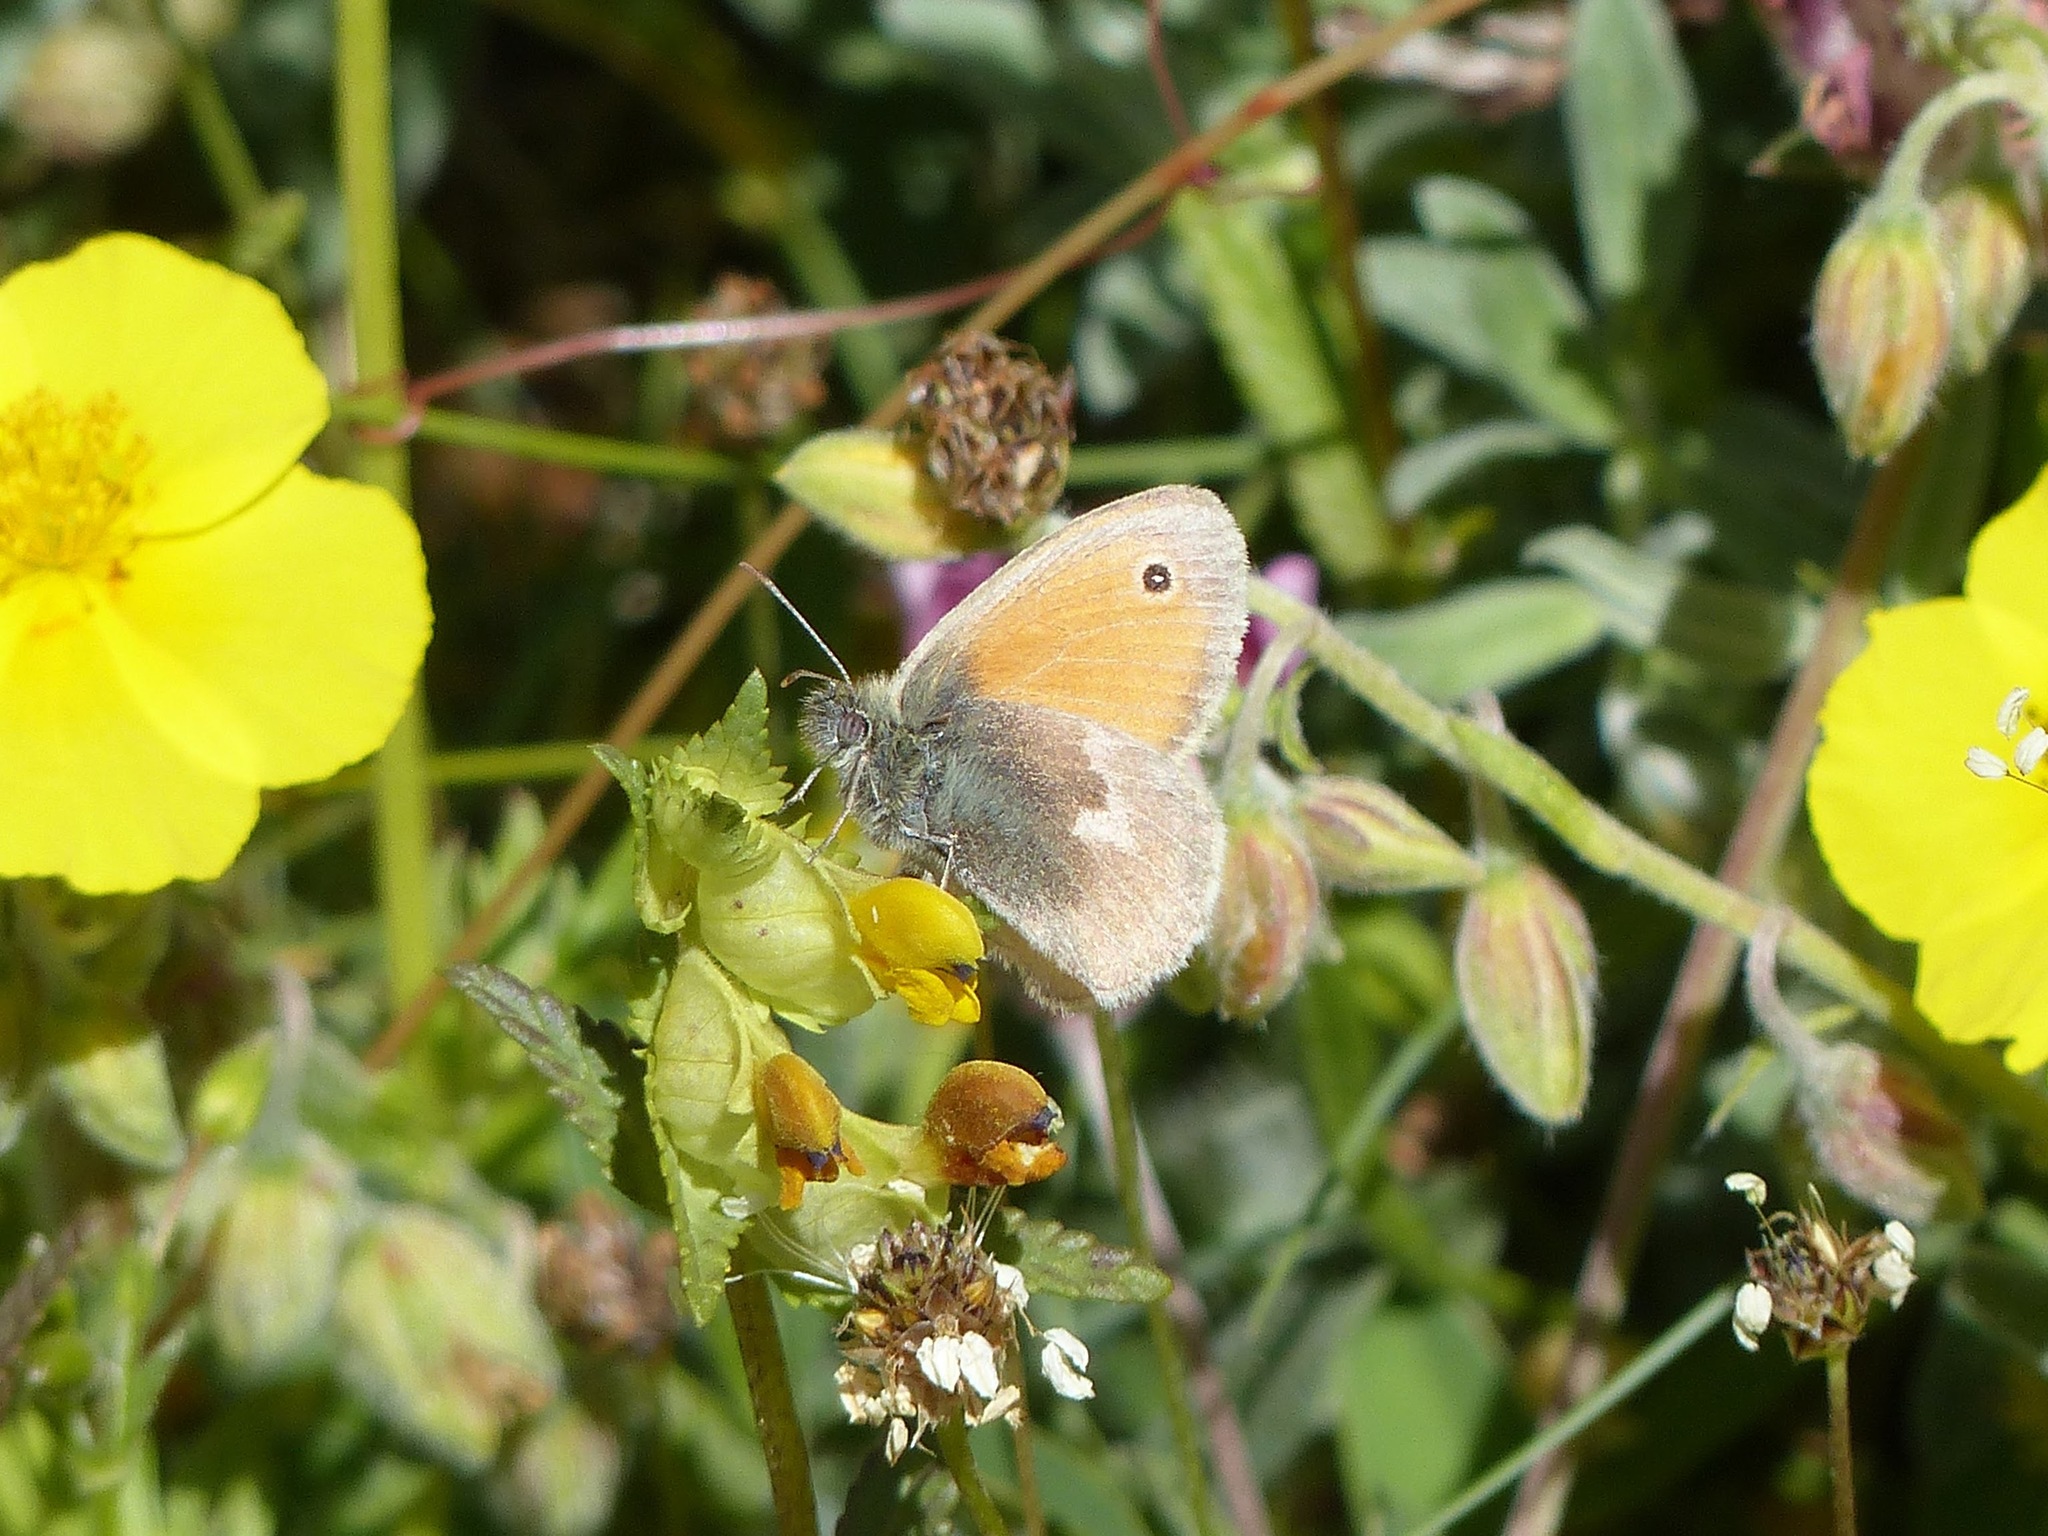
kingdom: Animalia
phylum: Arthropoda
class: Insecta
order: Lepidoptera
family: Nymphalidae
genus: Coenonympha
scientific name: Coenonympha pamphilus
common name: Small heath
